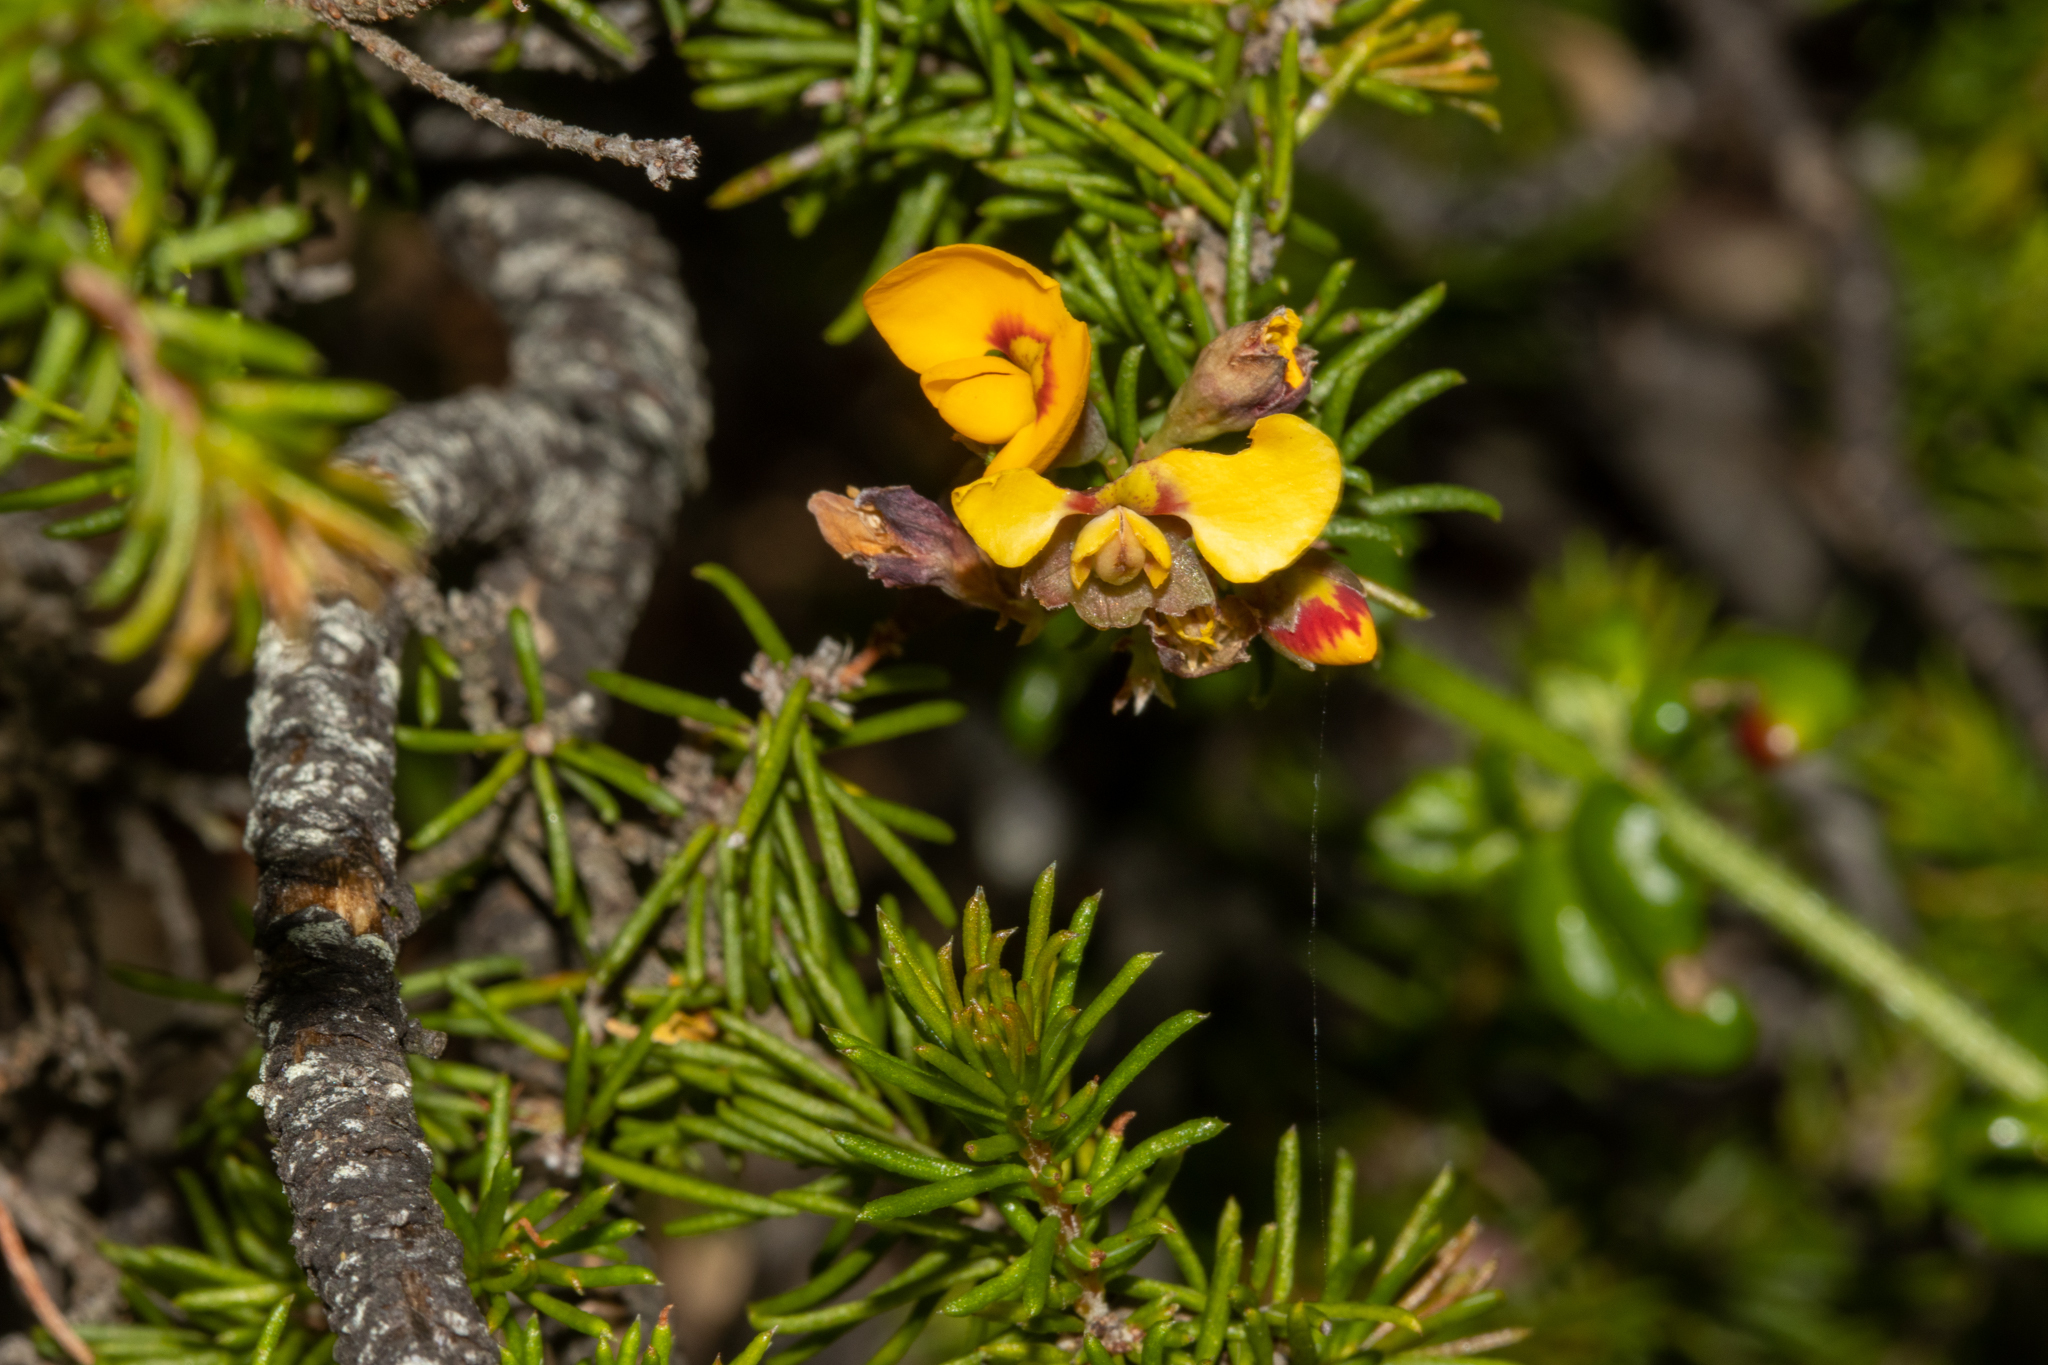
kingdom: Plantae
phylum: Tracheophyta
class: Magnoliopsida
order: Fabales
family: Fabaceae
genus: Dillwynia
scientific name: Dillwynia retorta
